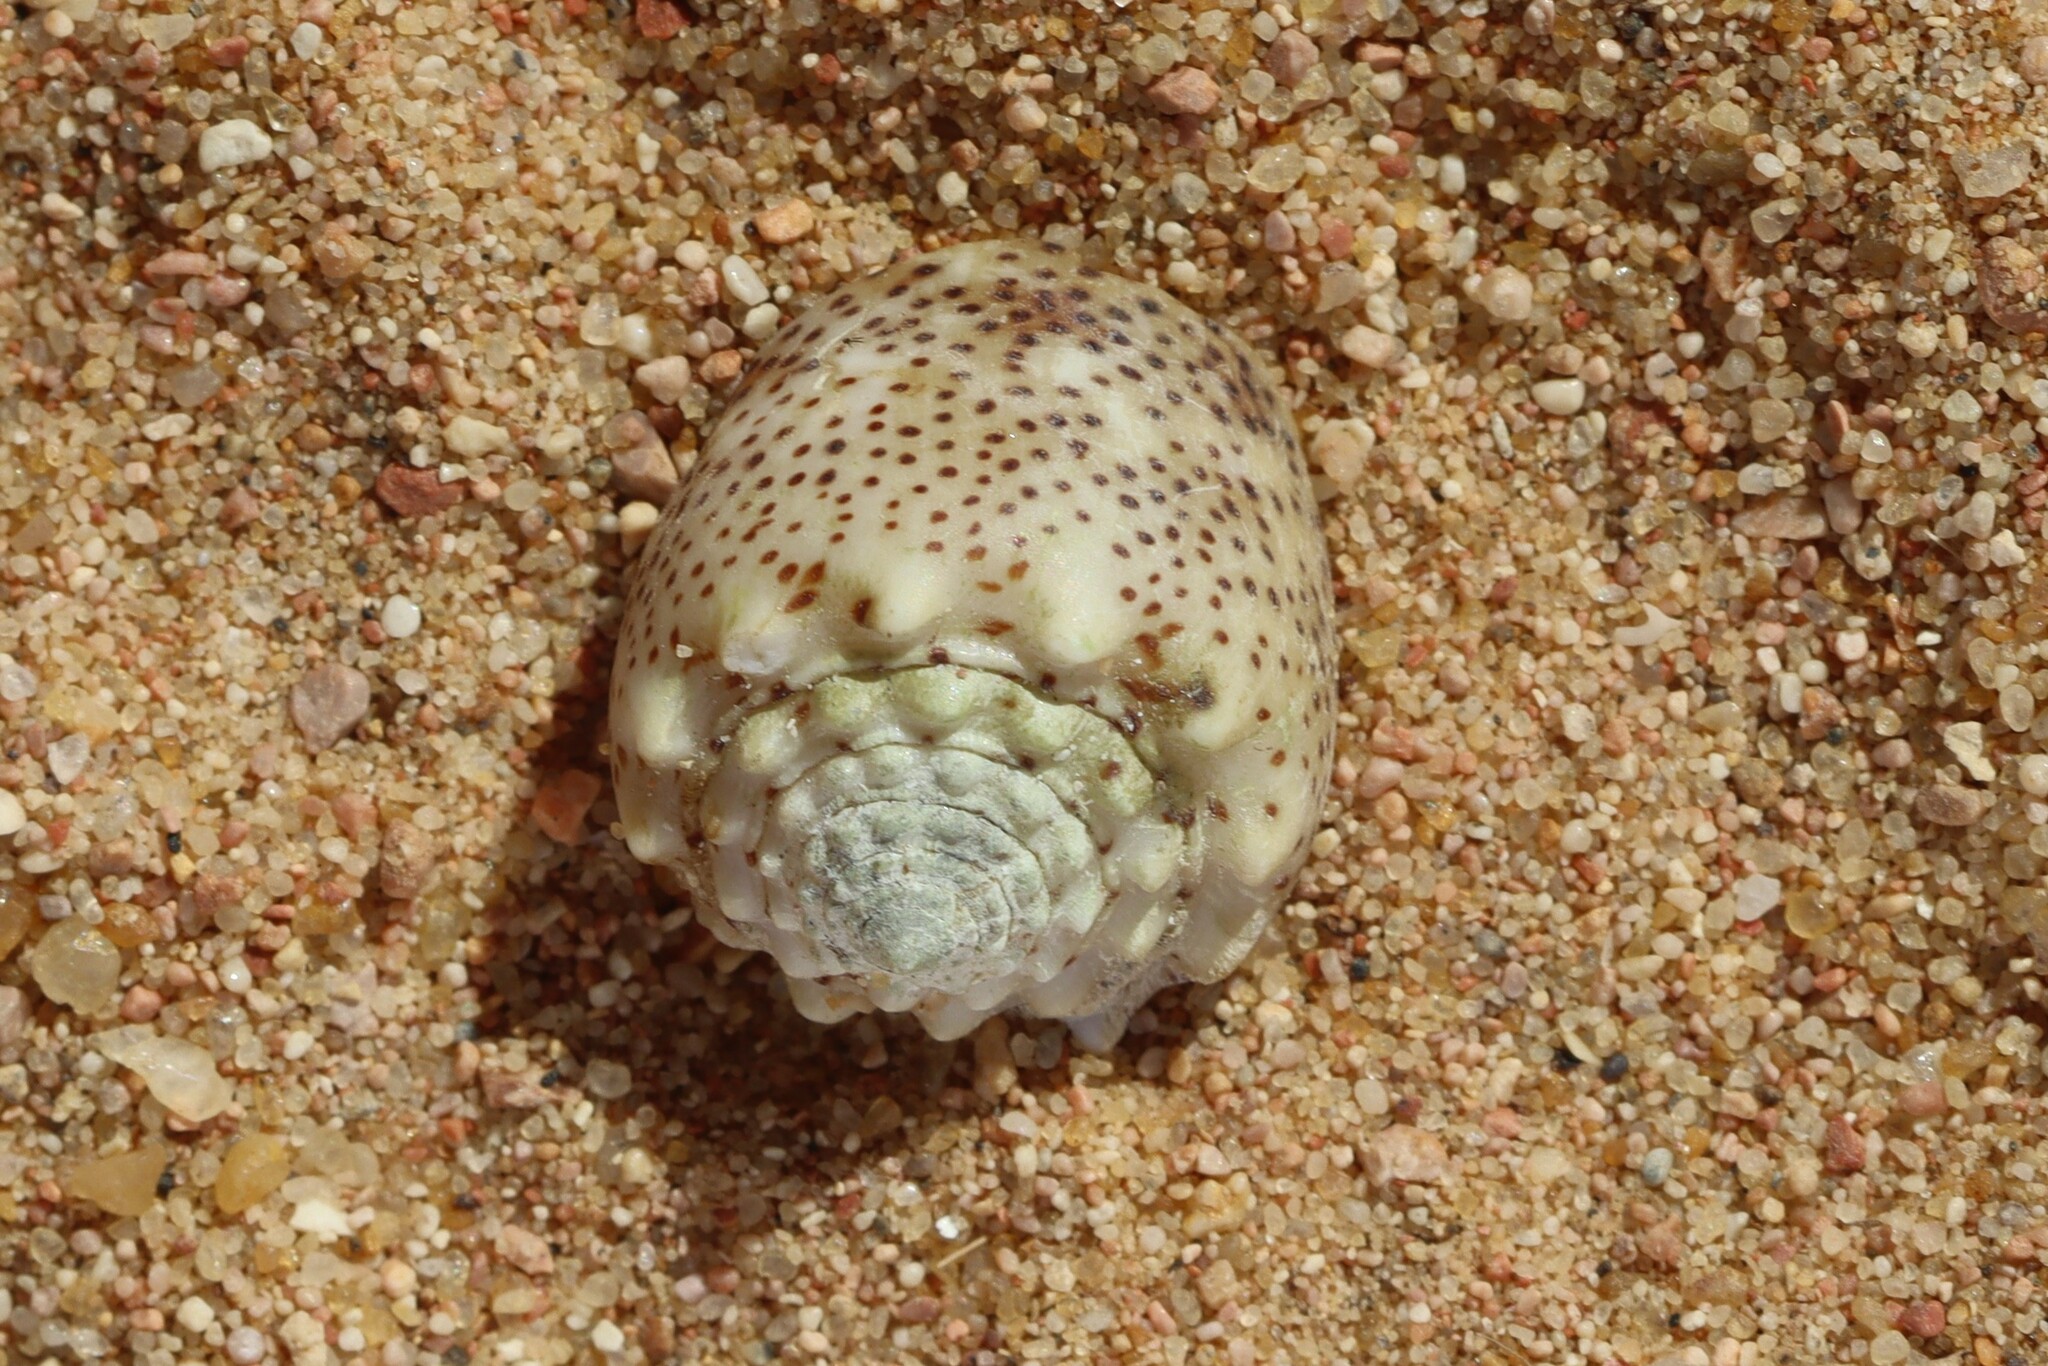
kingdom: Animalia
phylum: Mollusca
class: Gastropoda
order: Neogastropoda
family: Conidae
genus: Conus
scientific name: Conus arenatus
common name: Sand-dusted cone
